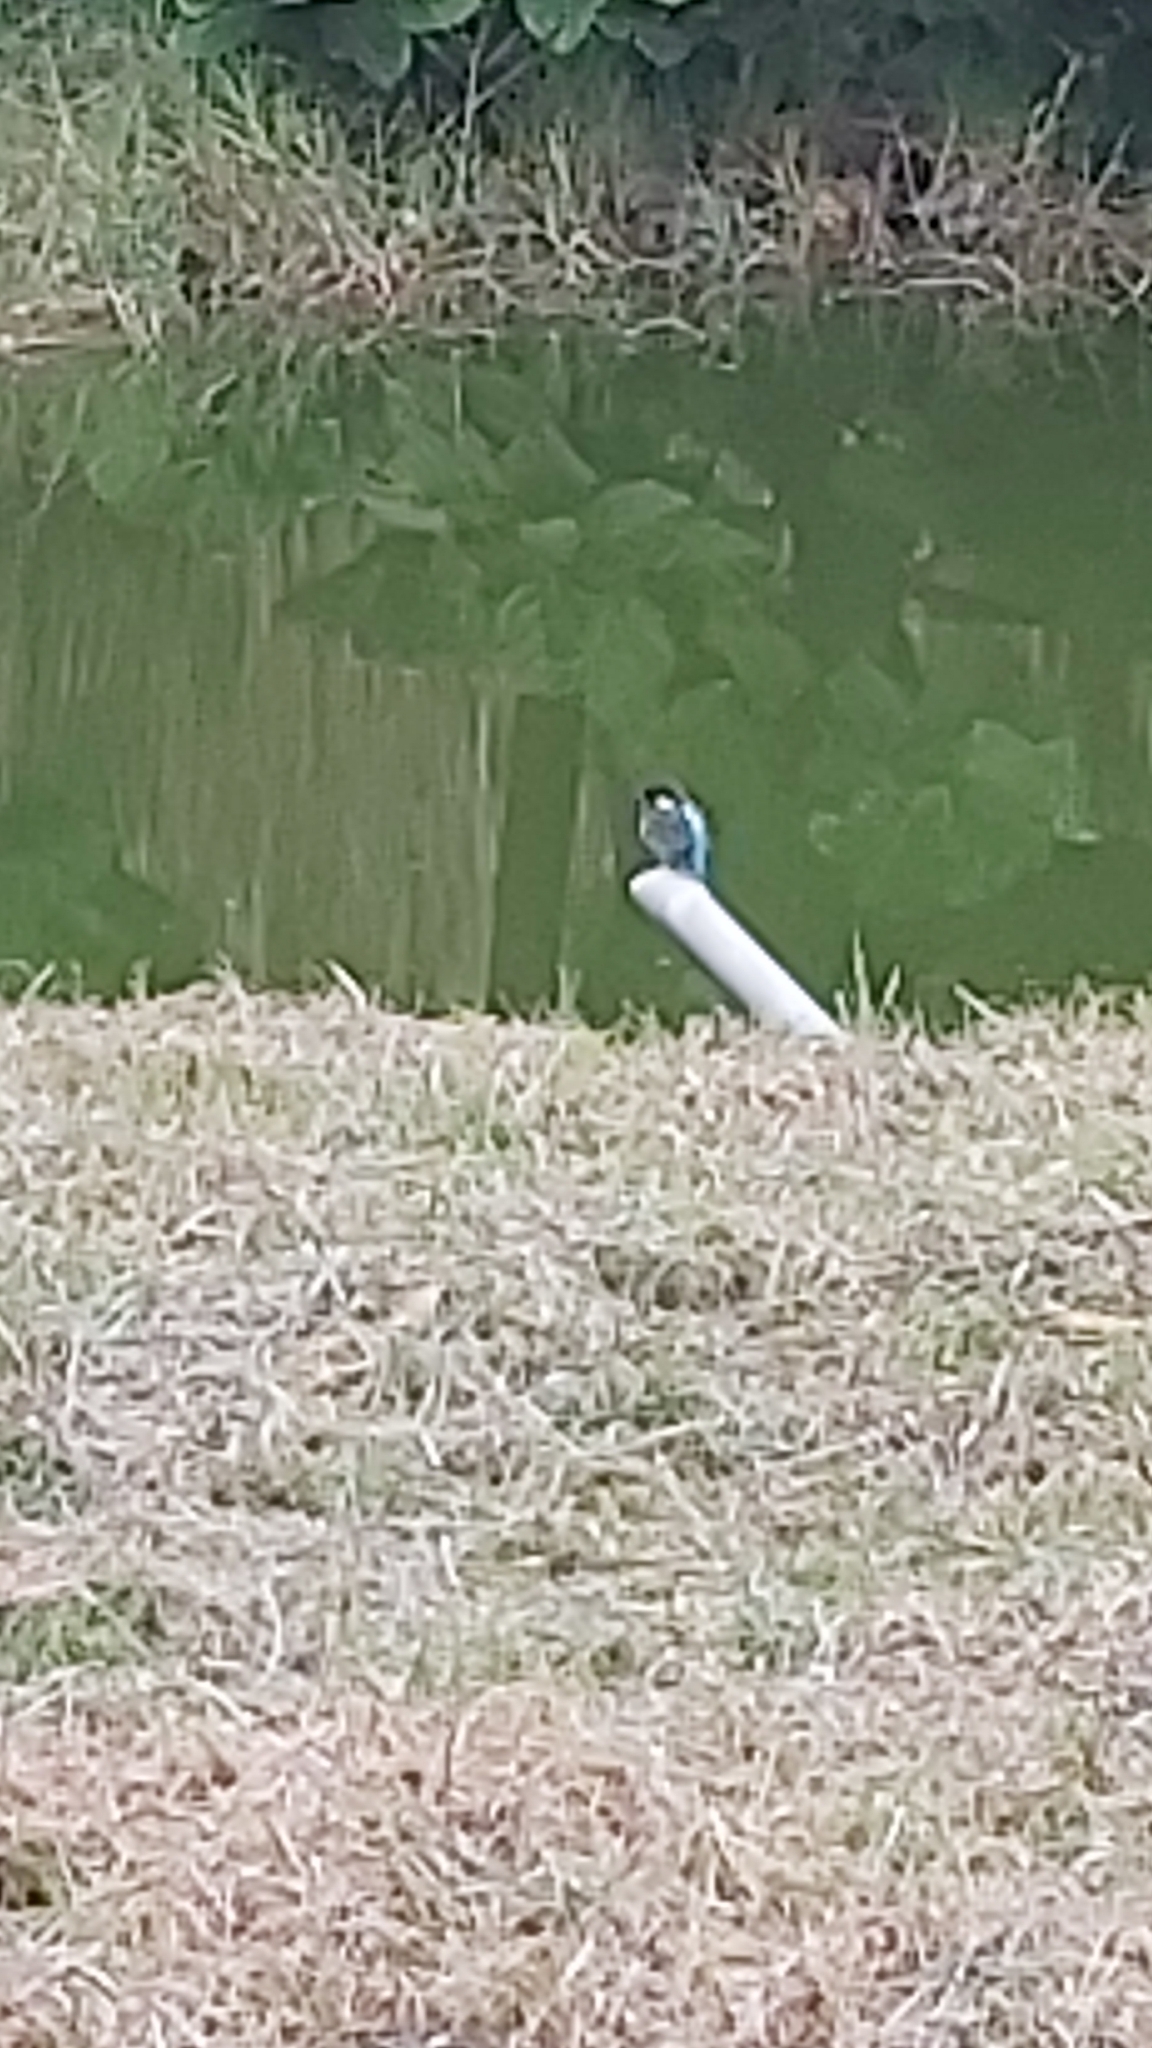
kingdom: Animalia
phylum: Chordata
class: Aves
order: Coraciiformes
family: Alcedinidae
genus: Alcedo
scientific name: Alcedo atthis
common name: Common kingfisher
